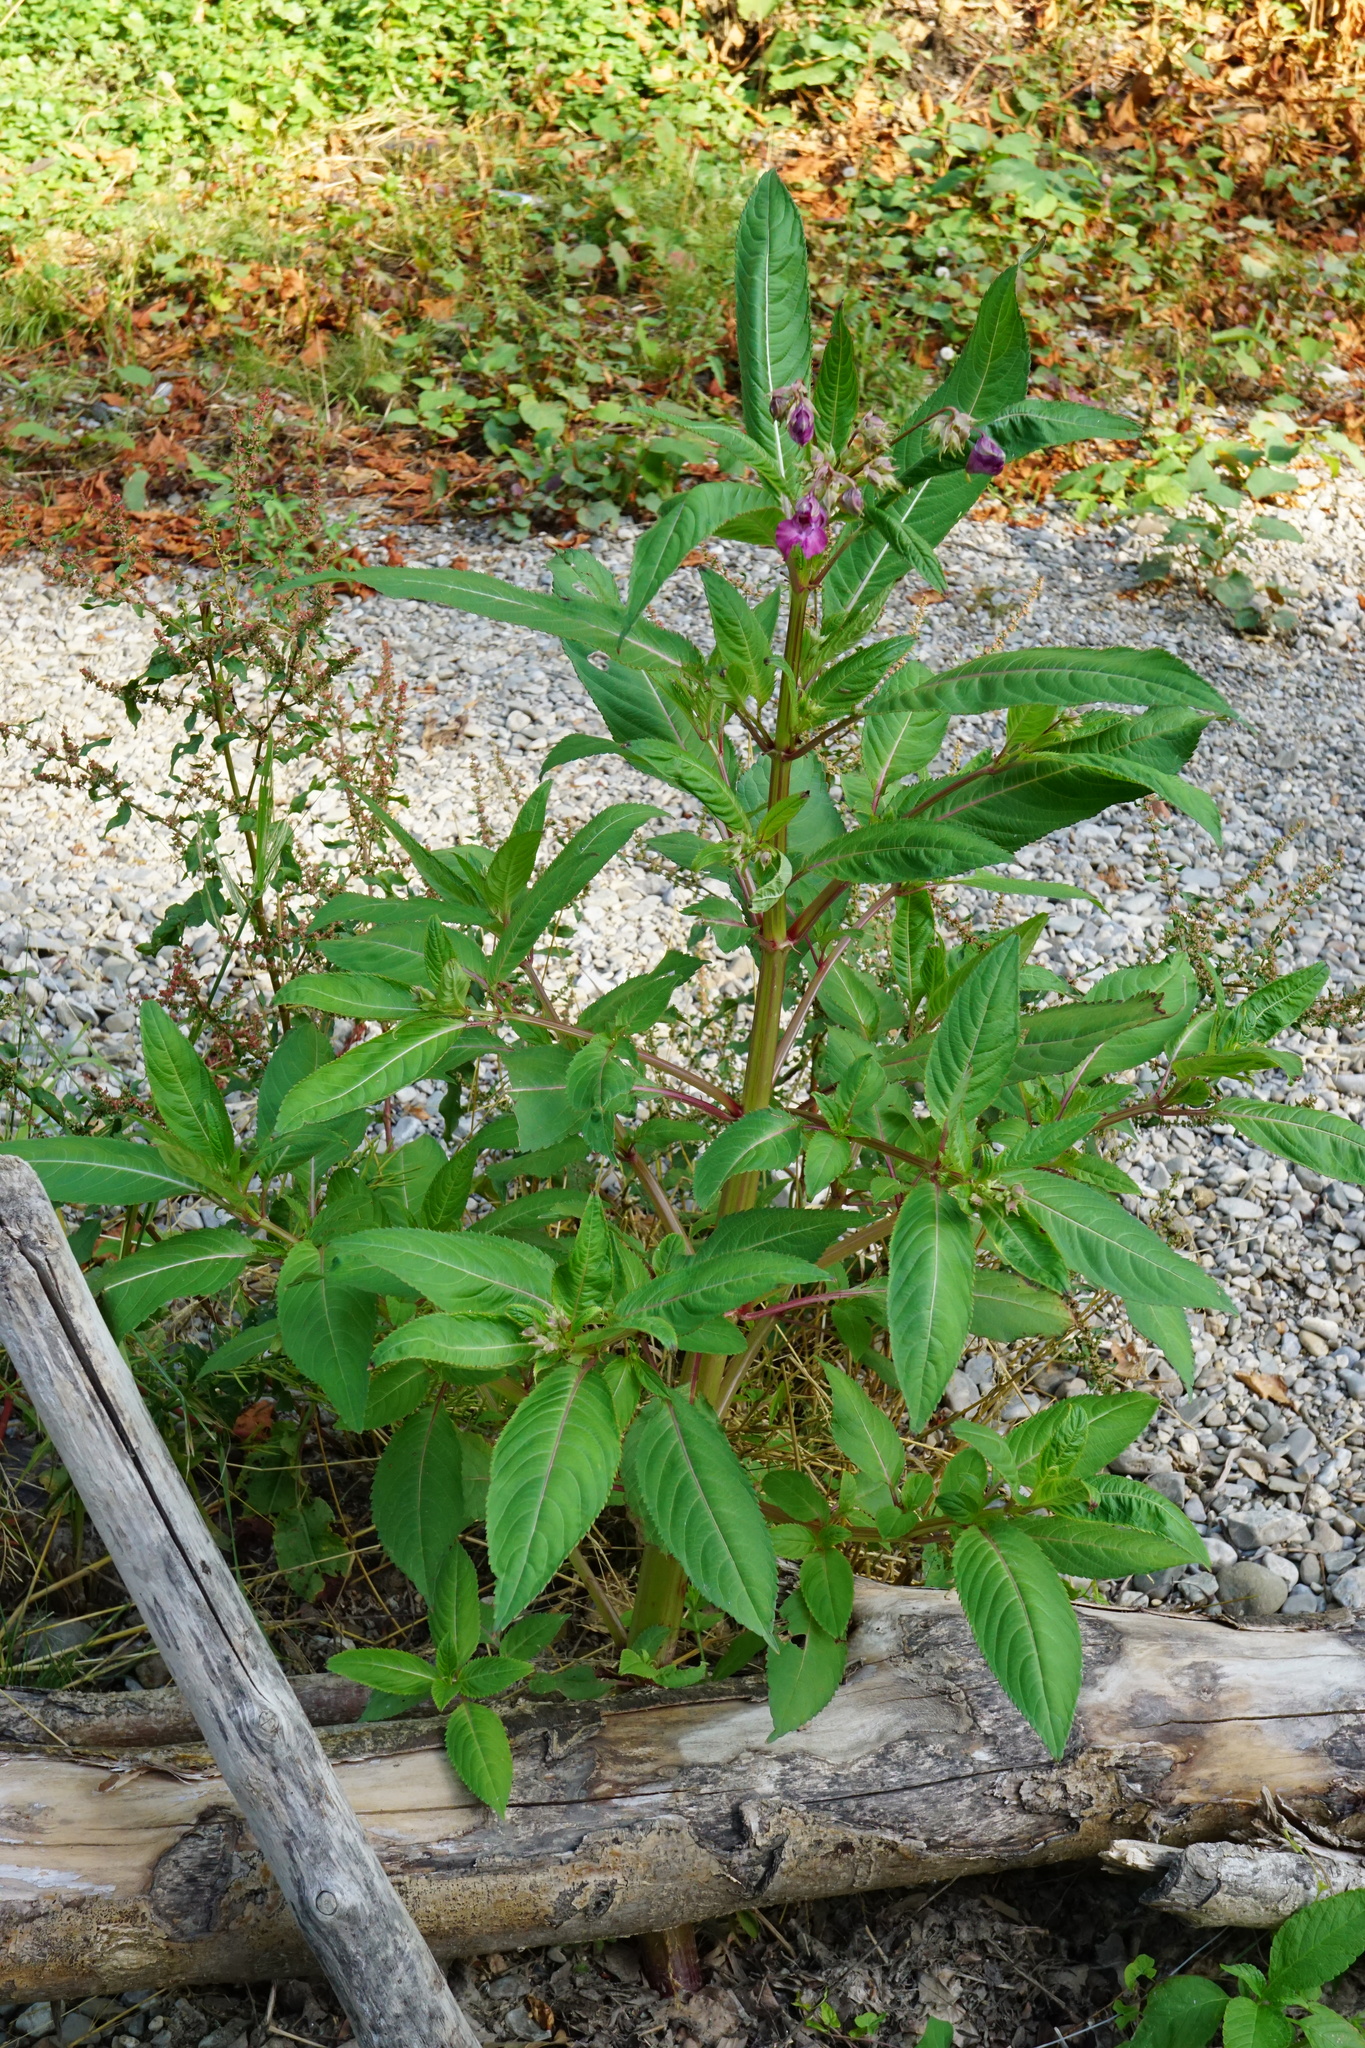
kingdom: Plantae
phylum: Tracheophyta
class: Magnoliopsida
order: Ericales
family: Balsaminaceae
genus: Impatiens
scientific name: Impatiens glandulifera
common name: Himalayan balsam
